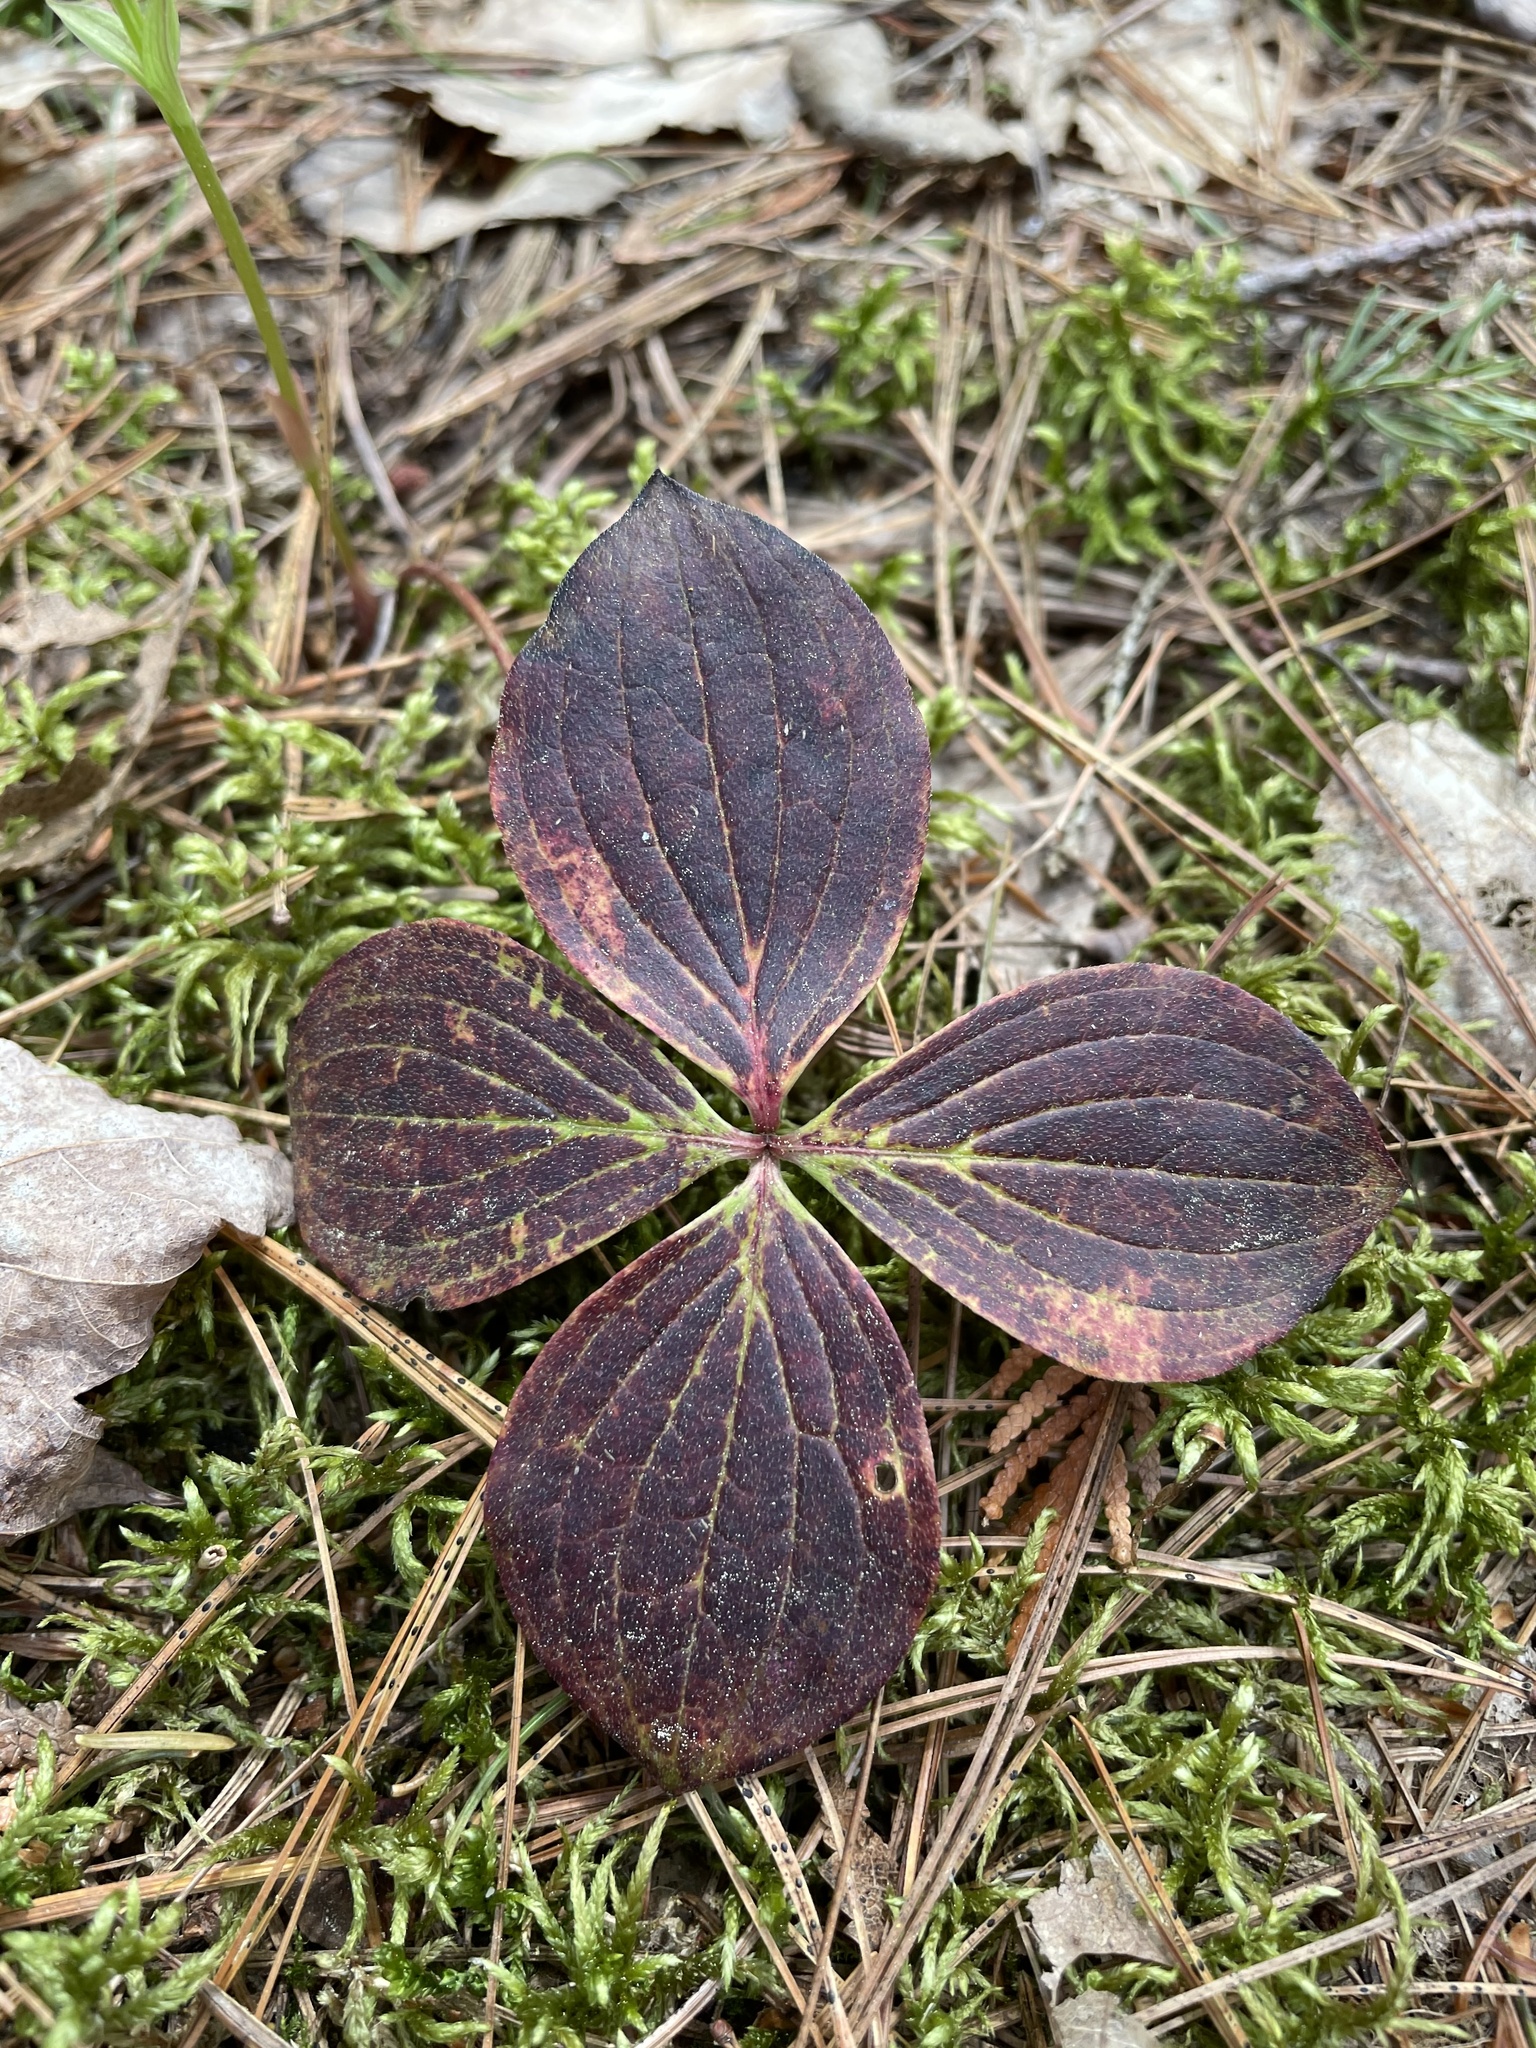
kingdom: Plantae
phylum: Tracheophyta
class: Magnoliopsida
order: Cornales
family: Cornaceae
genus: Cornus
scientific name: Cornus canadensis
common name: Creeping dogwood
